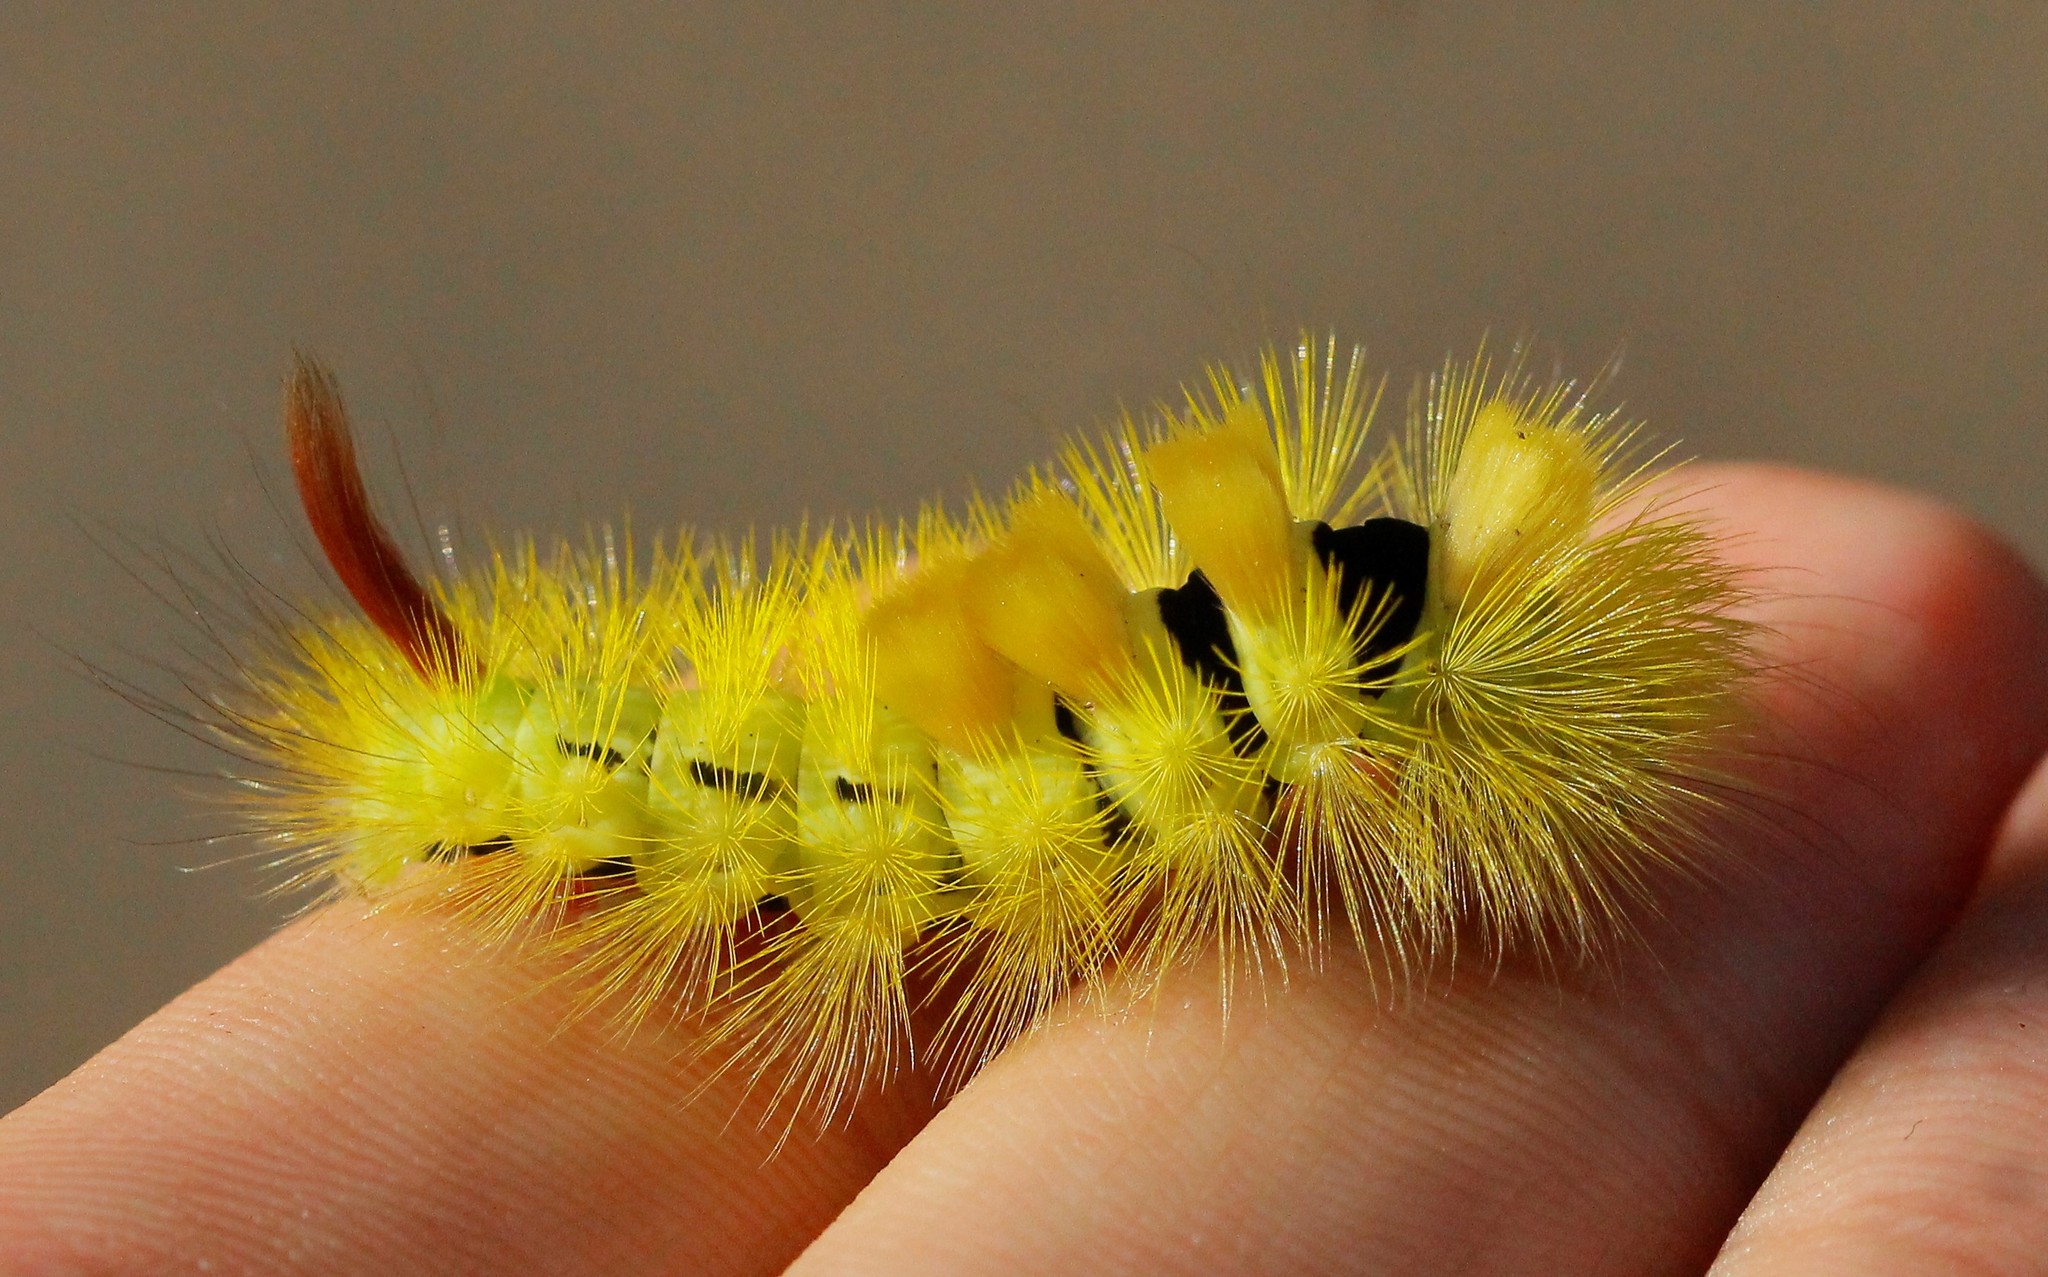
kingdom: Animalia
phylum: Arthropoda
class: Insecta
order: Lepidoptera
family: Erebidae
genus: Calliteara
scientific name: Calliteara pudibunda
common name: Pale tussock
